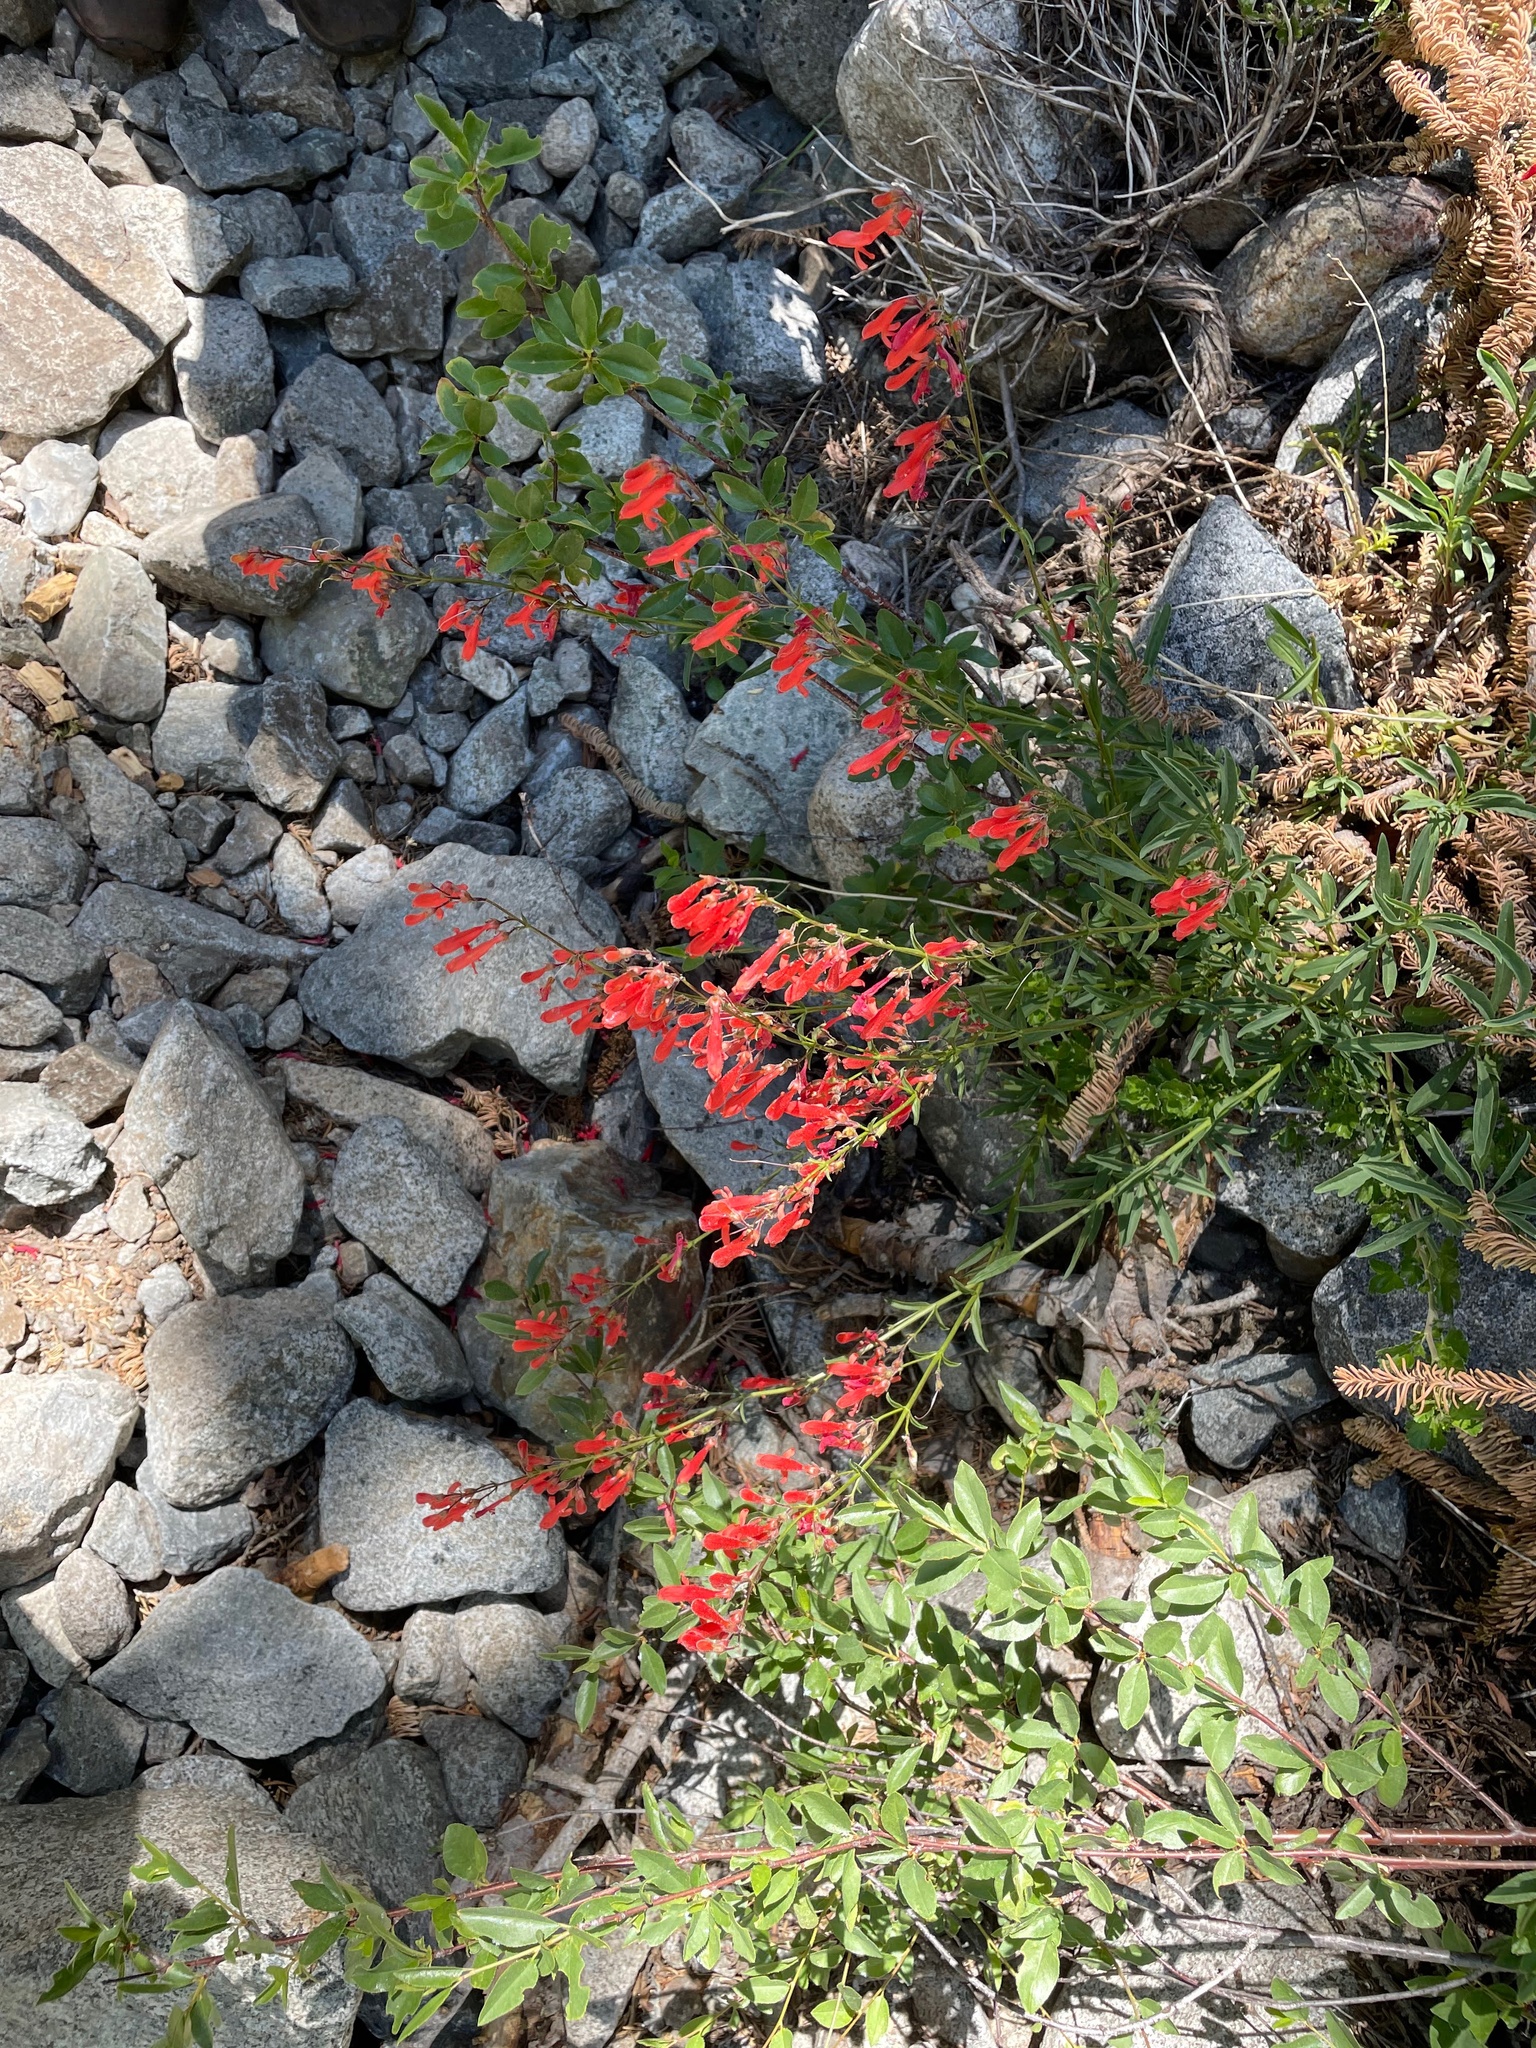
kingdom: Plantae
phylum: Tracheophyta
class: Magnoliopsida
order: Lamiales
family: Plantaginaceae
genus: Penstemon
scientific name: Penstemon rostriflorus
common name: Bridges's penstemon
